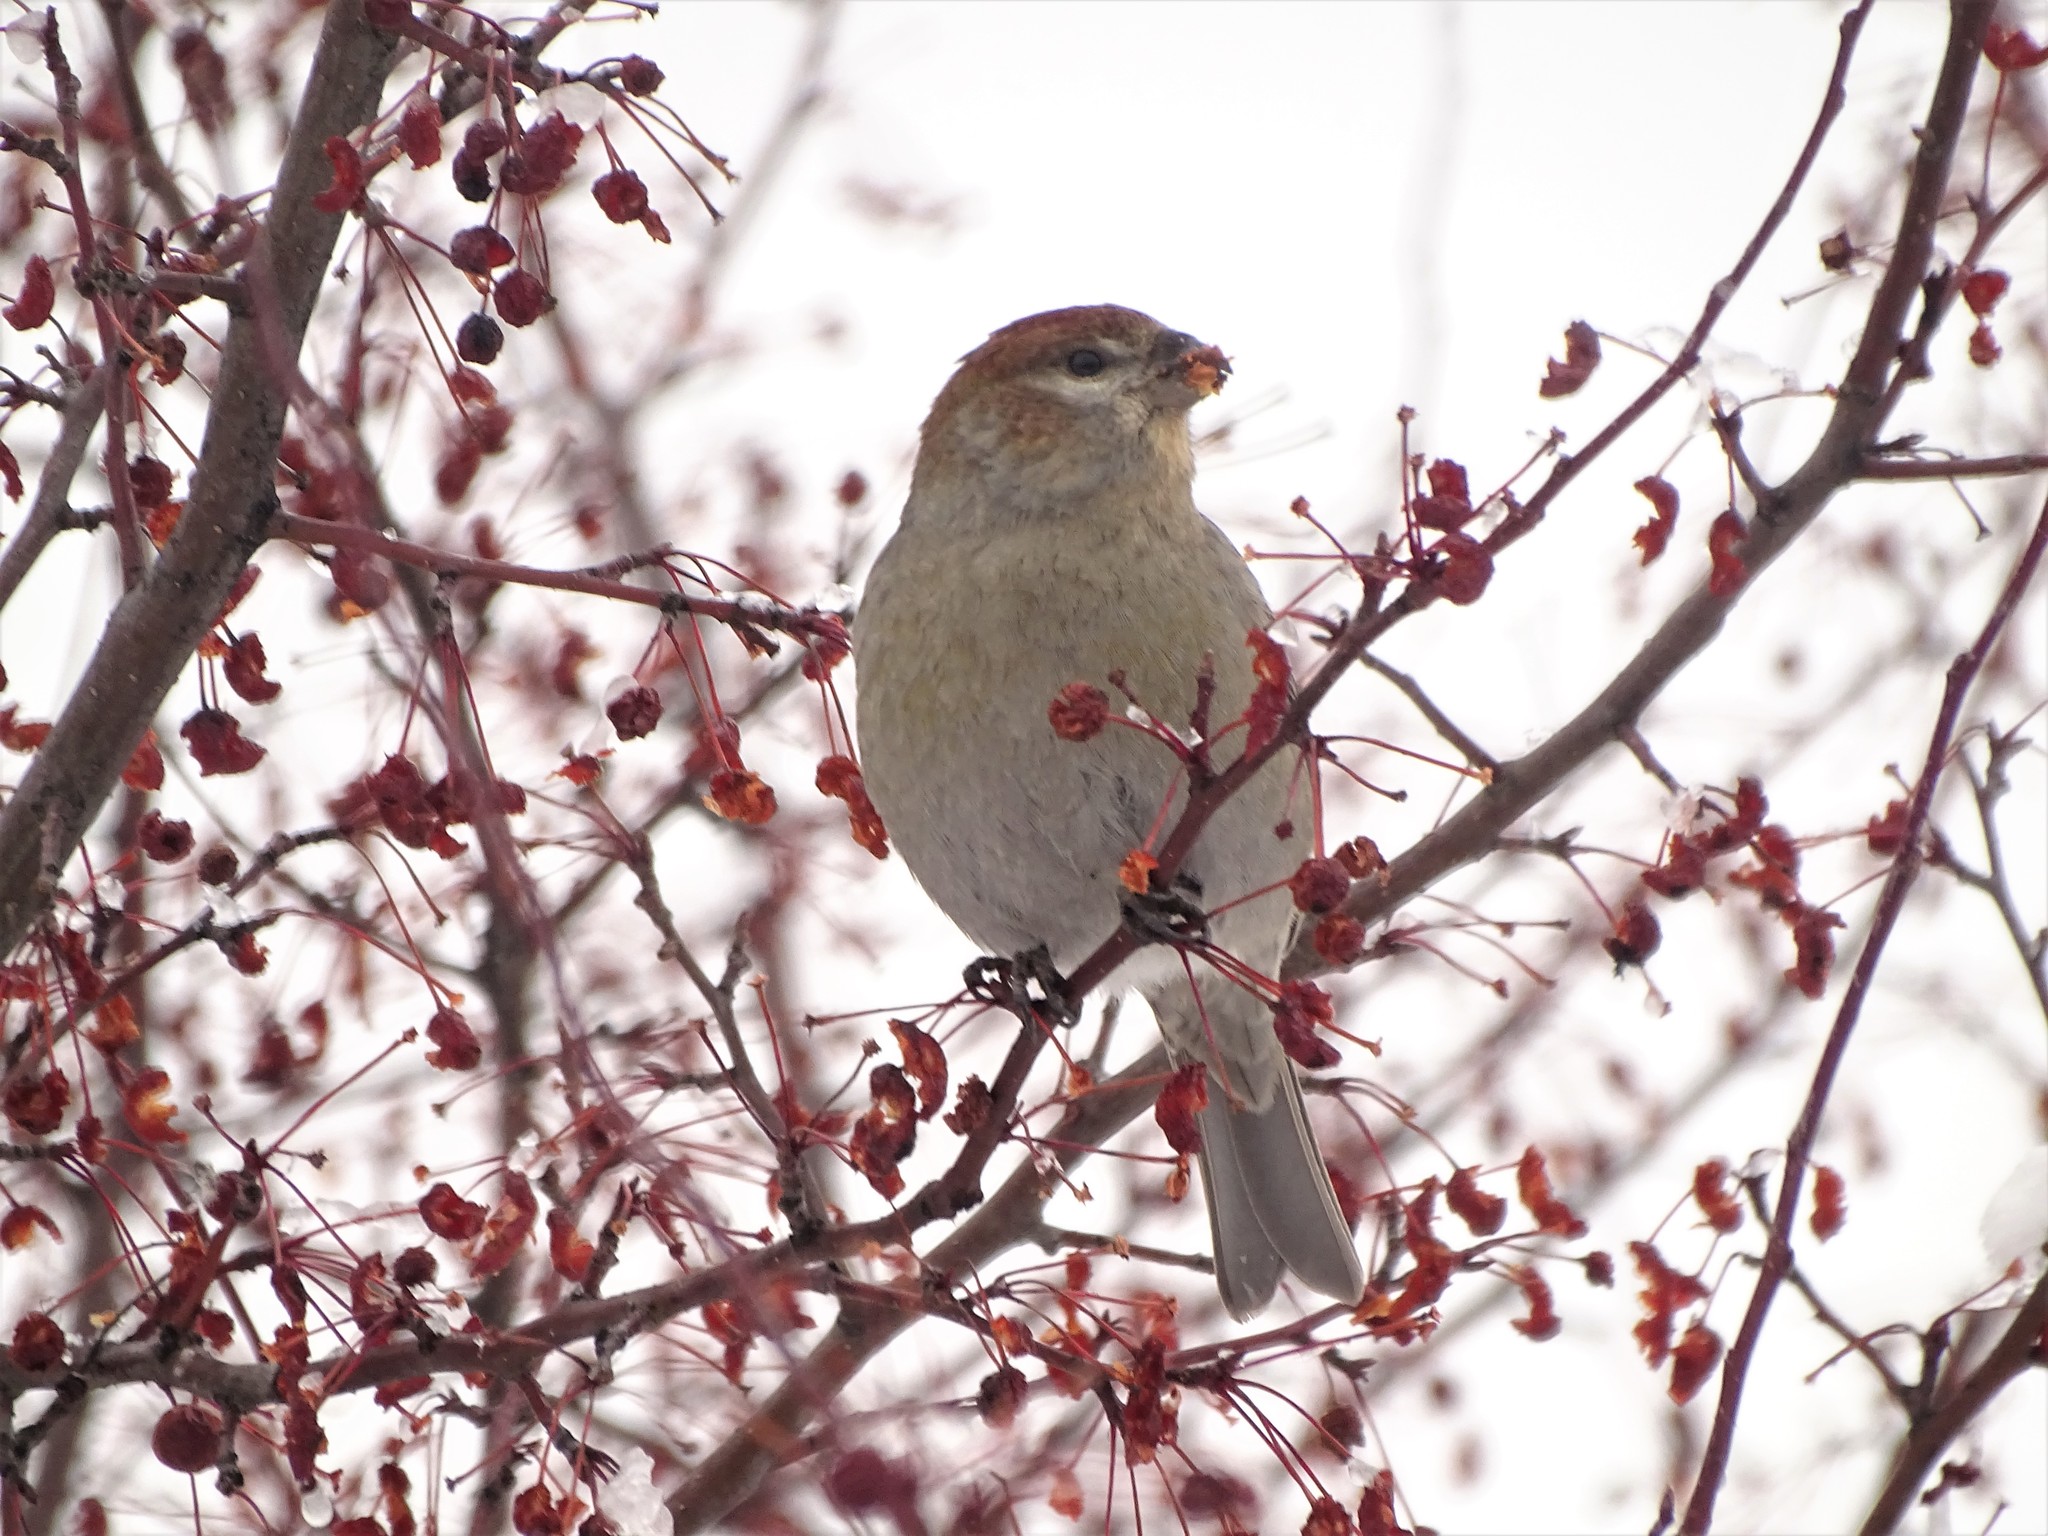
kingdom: Animalia
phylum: Chordata
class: Aves
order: Passeriformes
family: Fringillidae
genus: Pinicola
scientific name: Pinicola enucleator
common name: Pine grosbeak
